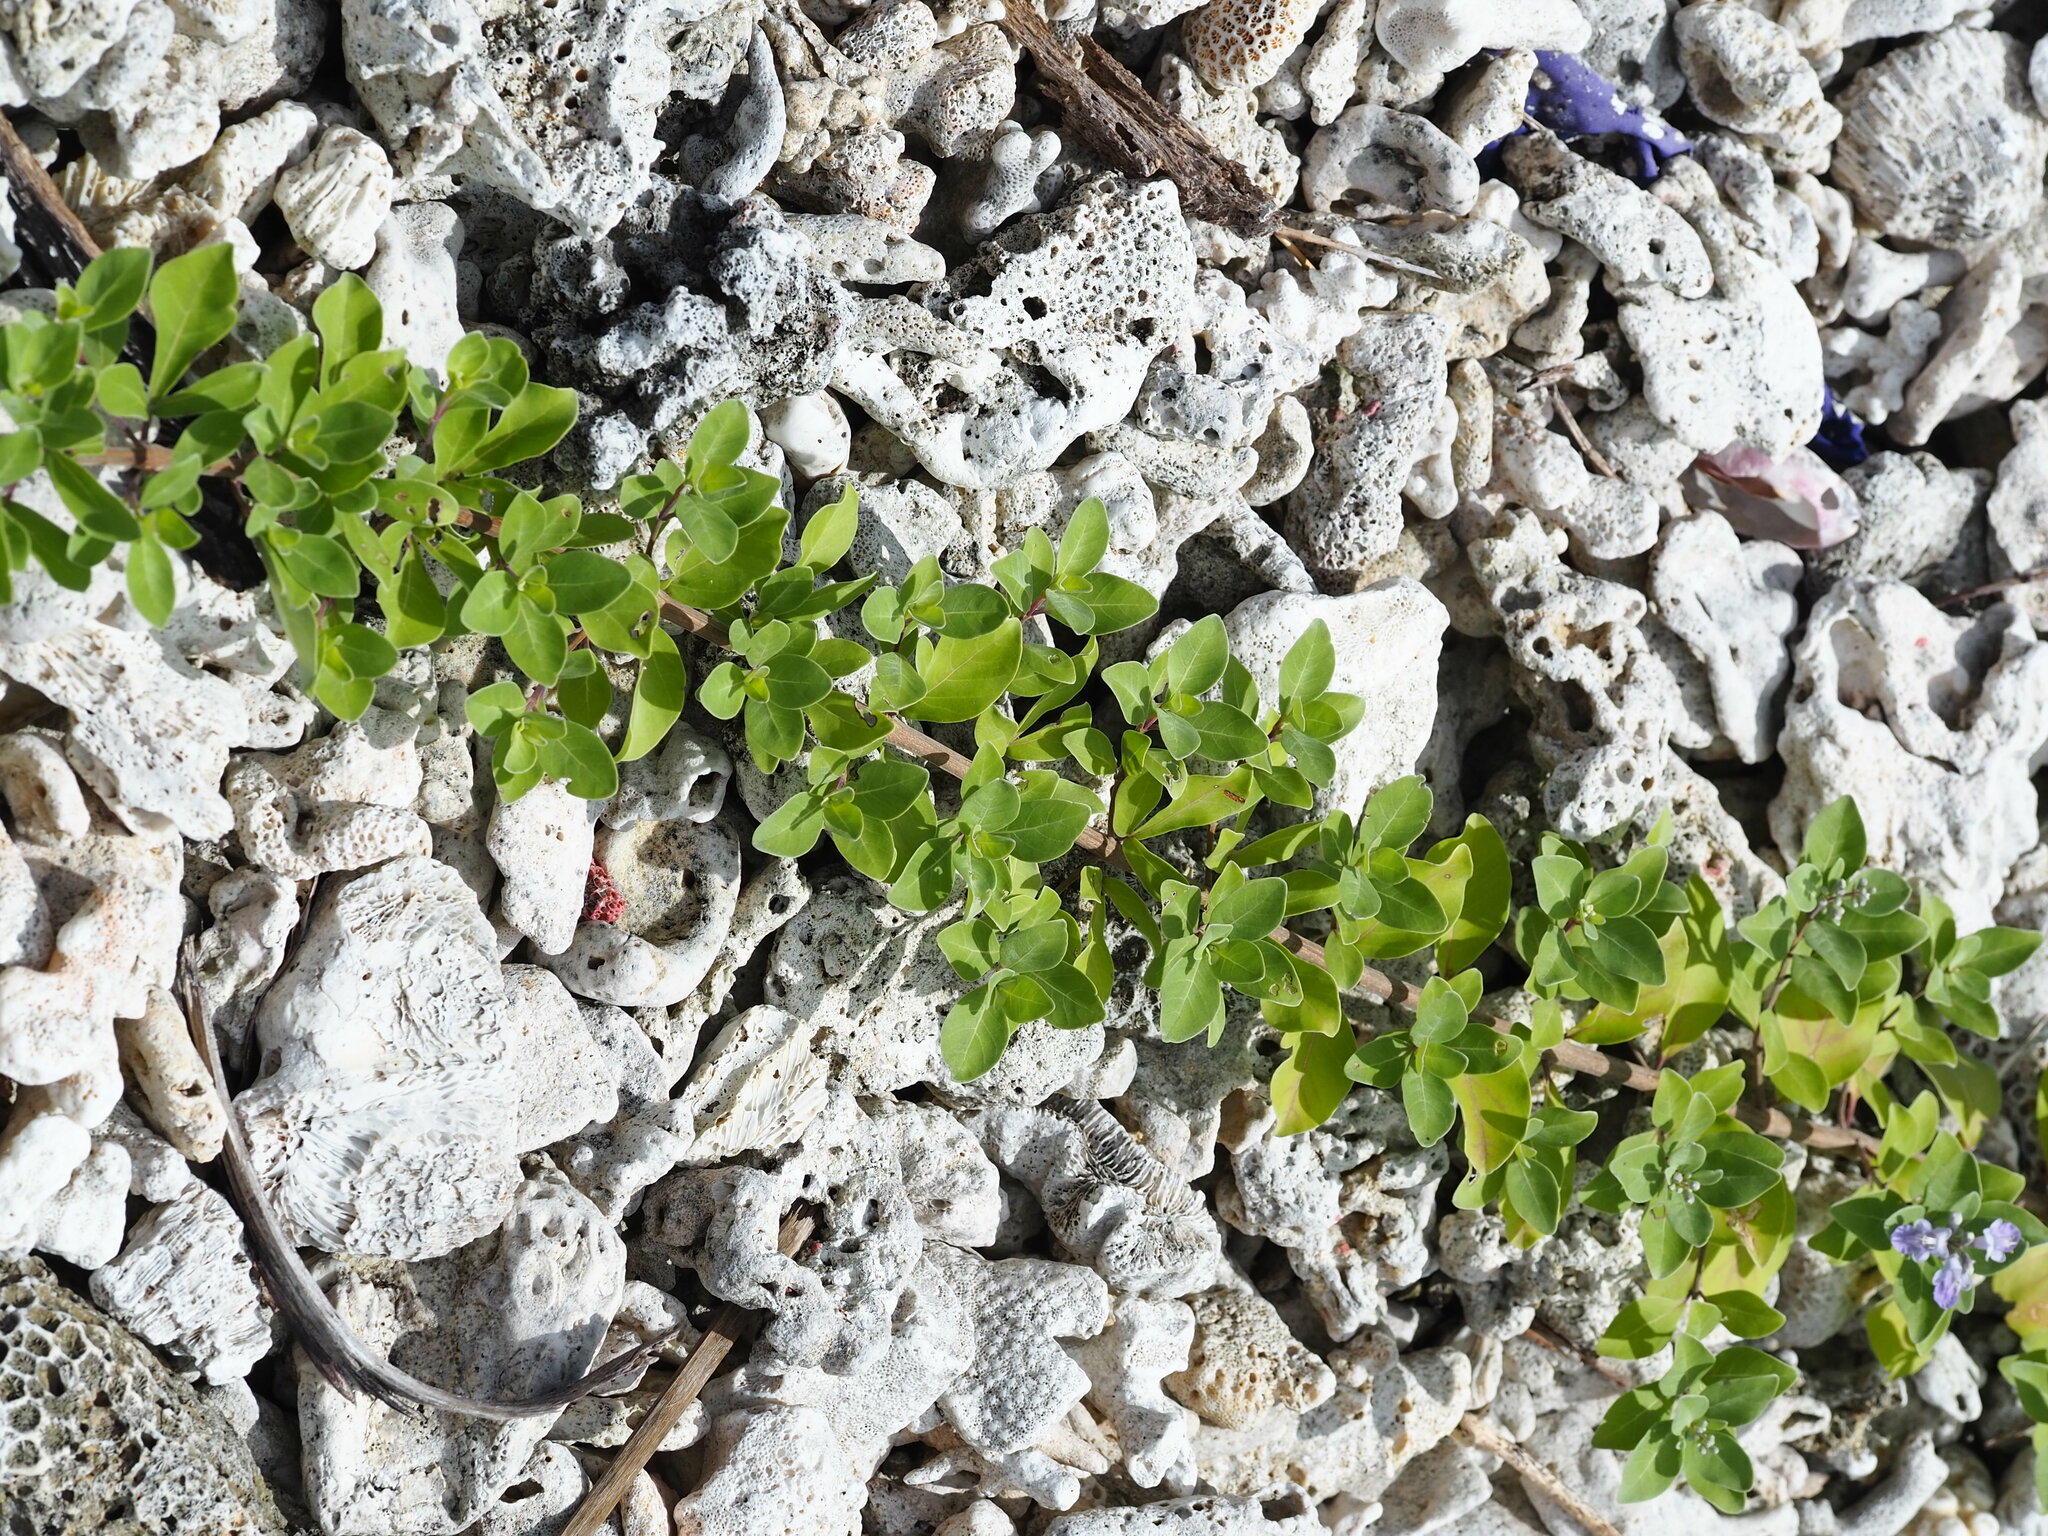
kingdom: Plantae
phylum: Tracheophyta
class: Magnoliopsida
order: Lamiales
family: Lamiaceae
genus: Vitex
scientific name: Vitex rotundifolia
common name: Beach vitex
